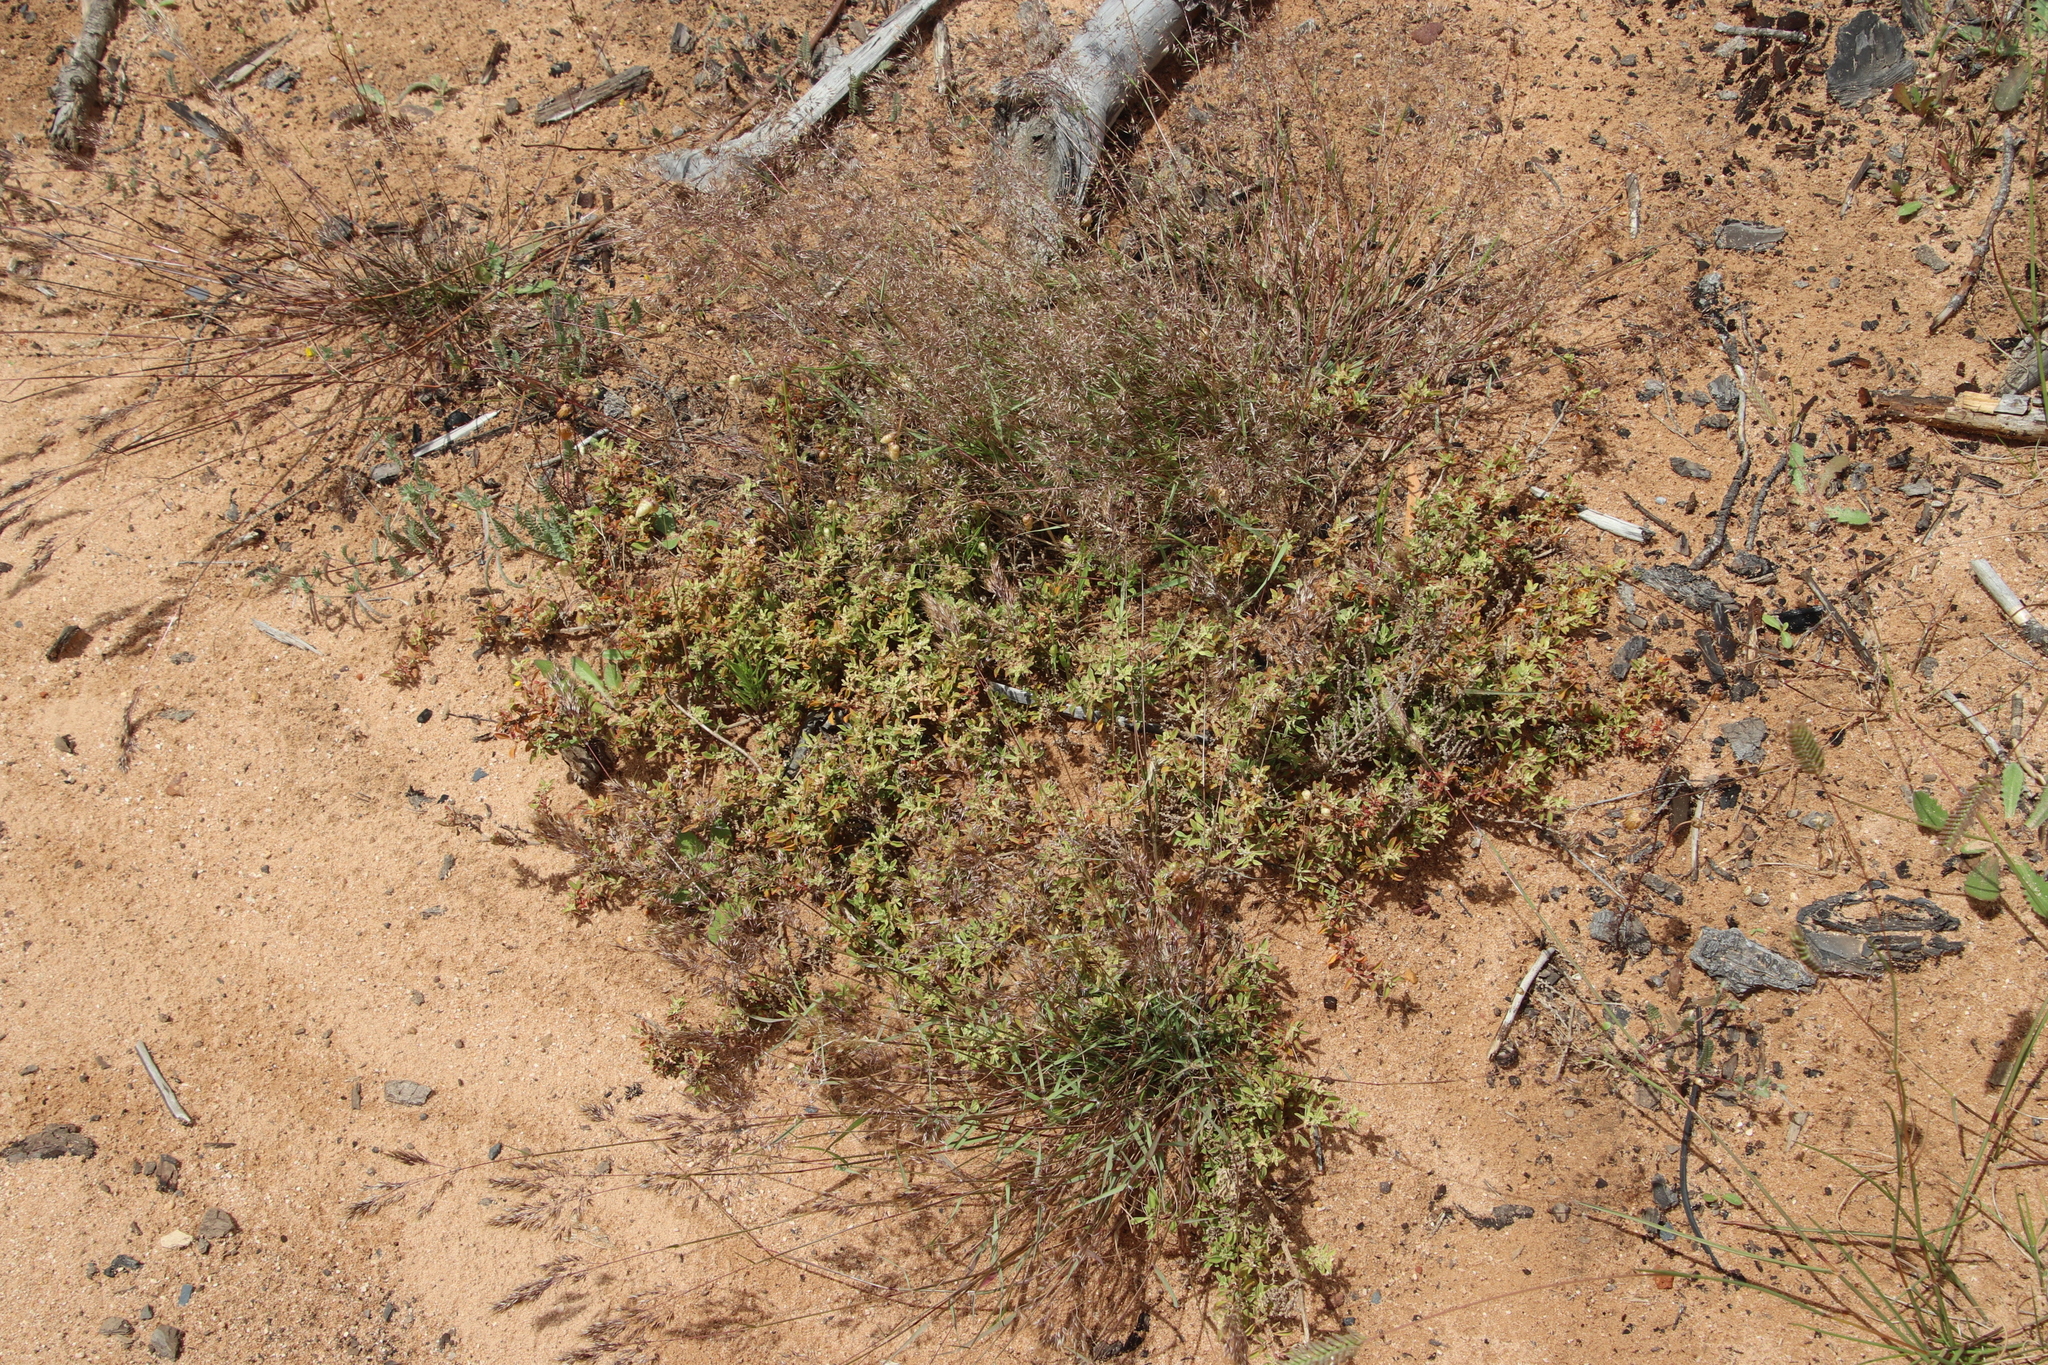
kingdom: Plantae
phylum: Tracheophyta
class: Magnoliopsida
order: Caryophyllales
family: Aizoaceae
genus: Aizoon
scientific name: Aizoon secundum
